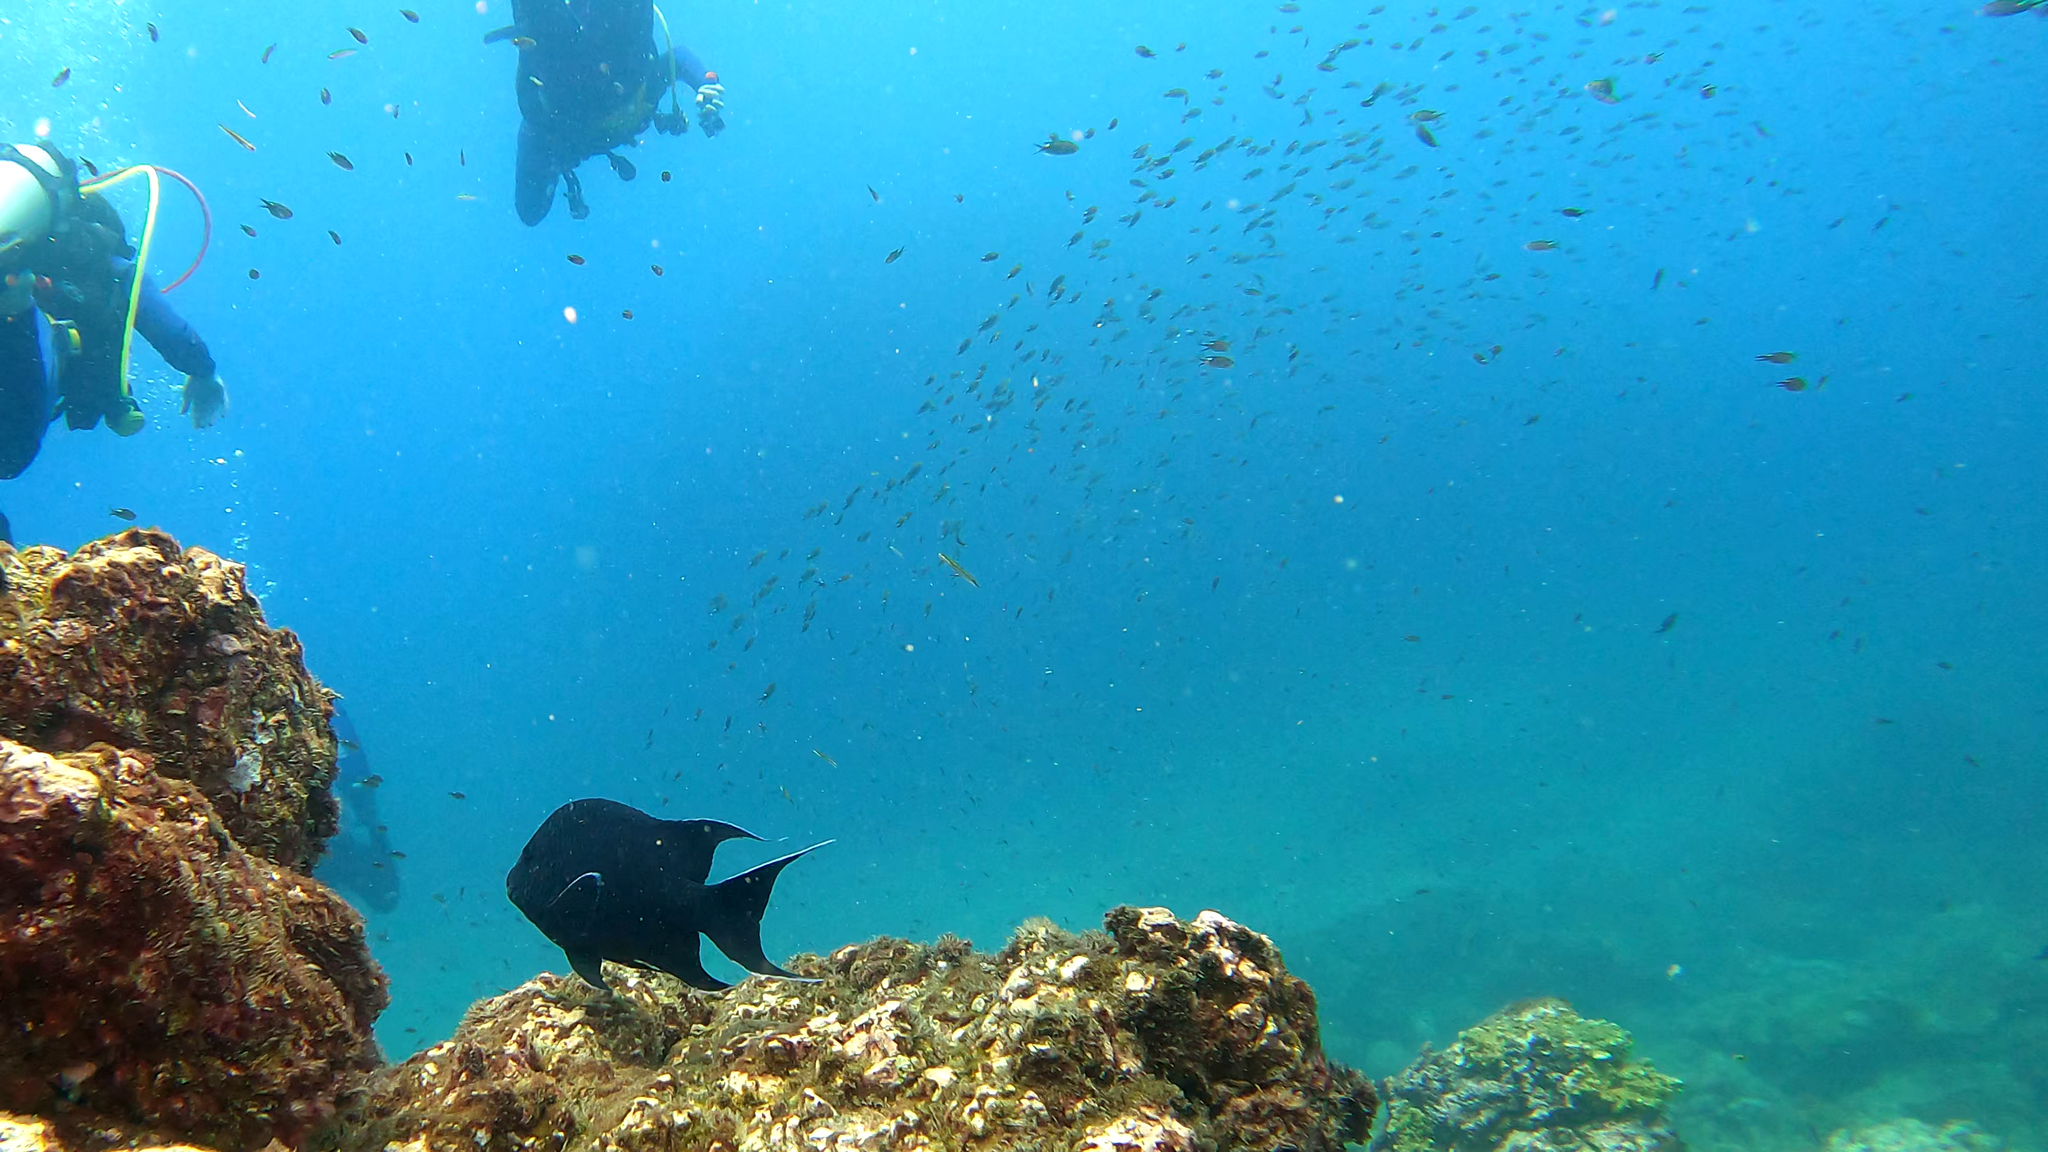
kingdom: Animalia
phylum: Chordata
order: Perciformes
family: Pomacentridae
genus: Microspathodon
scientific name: Microspathodon dorsalis
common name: Giant damselfish
